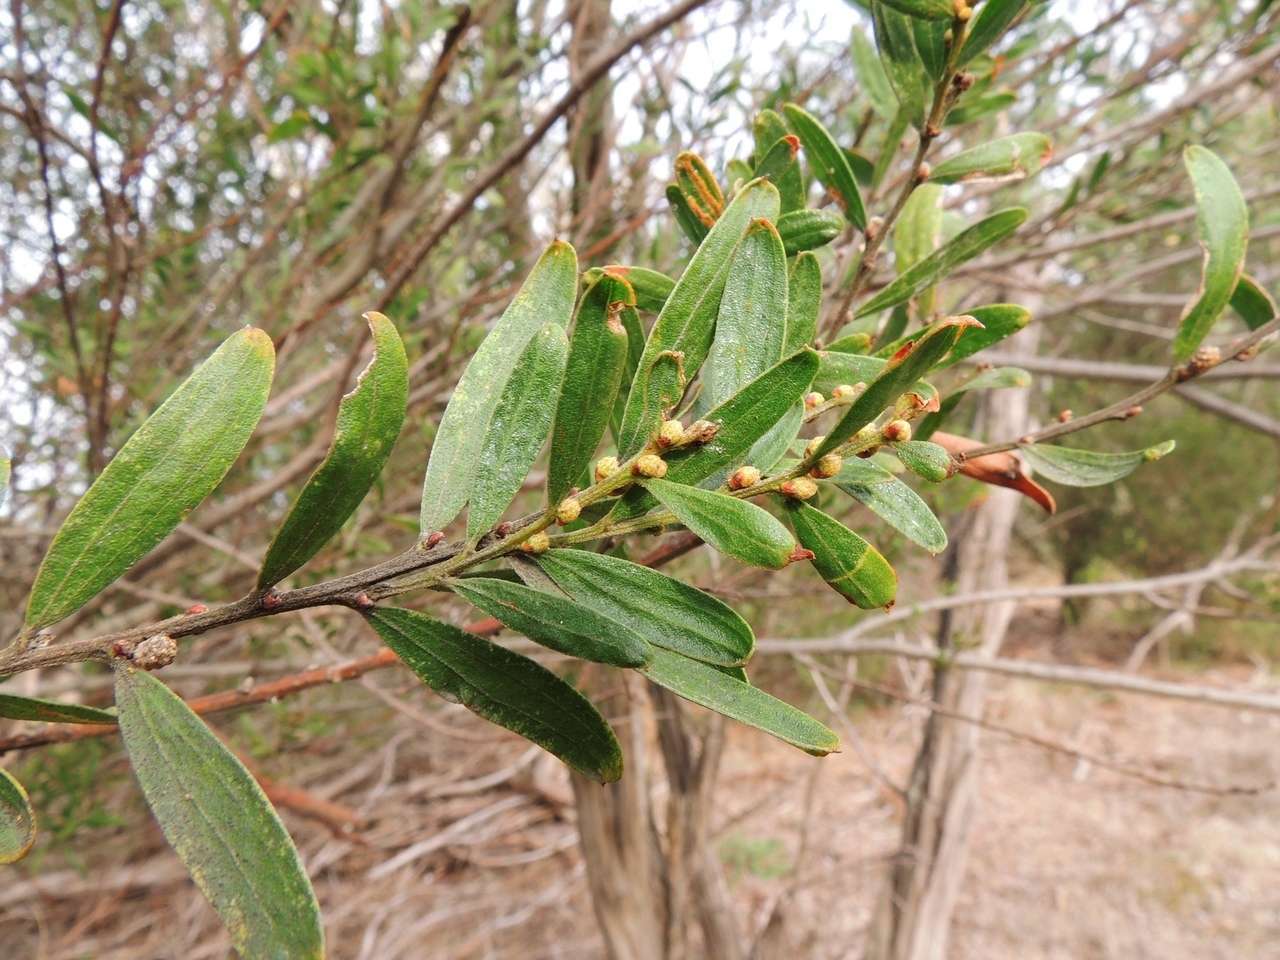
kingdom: Plantae
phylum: Tracheophyta
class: Magnoliopsida
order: Fabales
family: Fabaceae
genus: Acacia
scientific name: Acacia rostriformis
